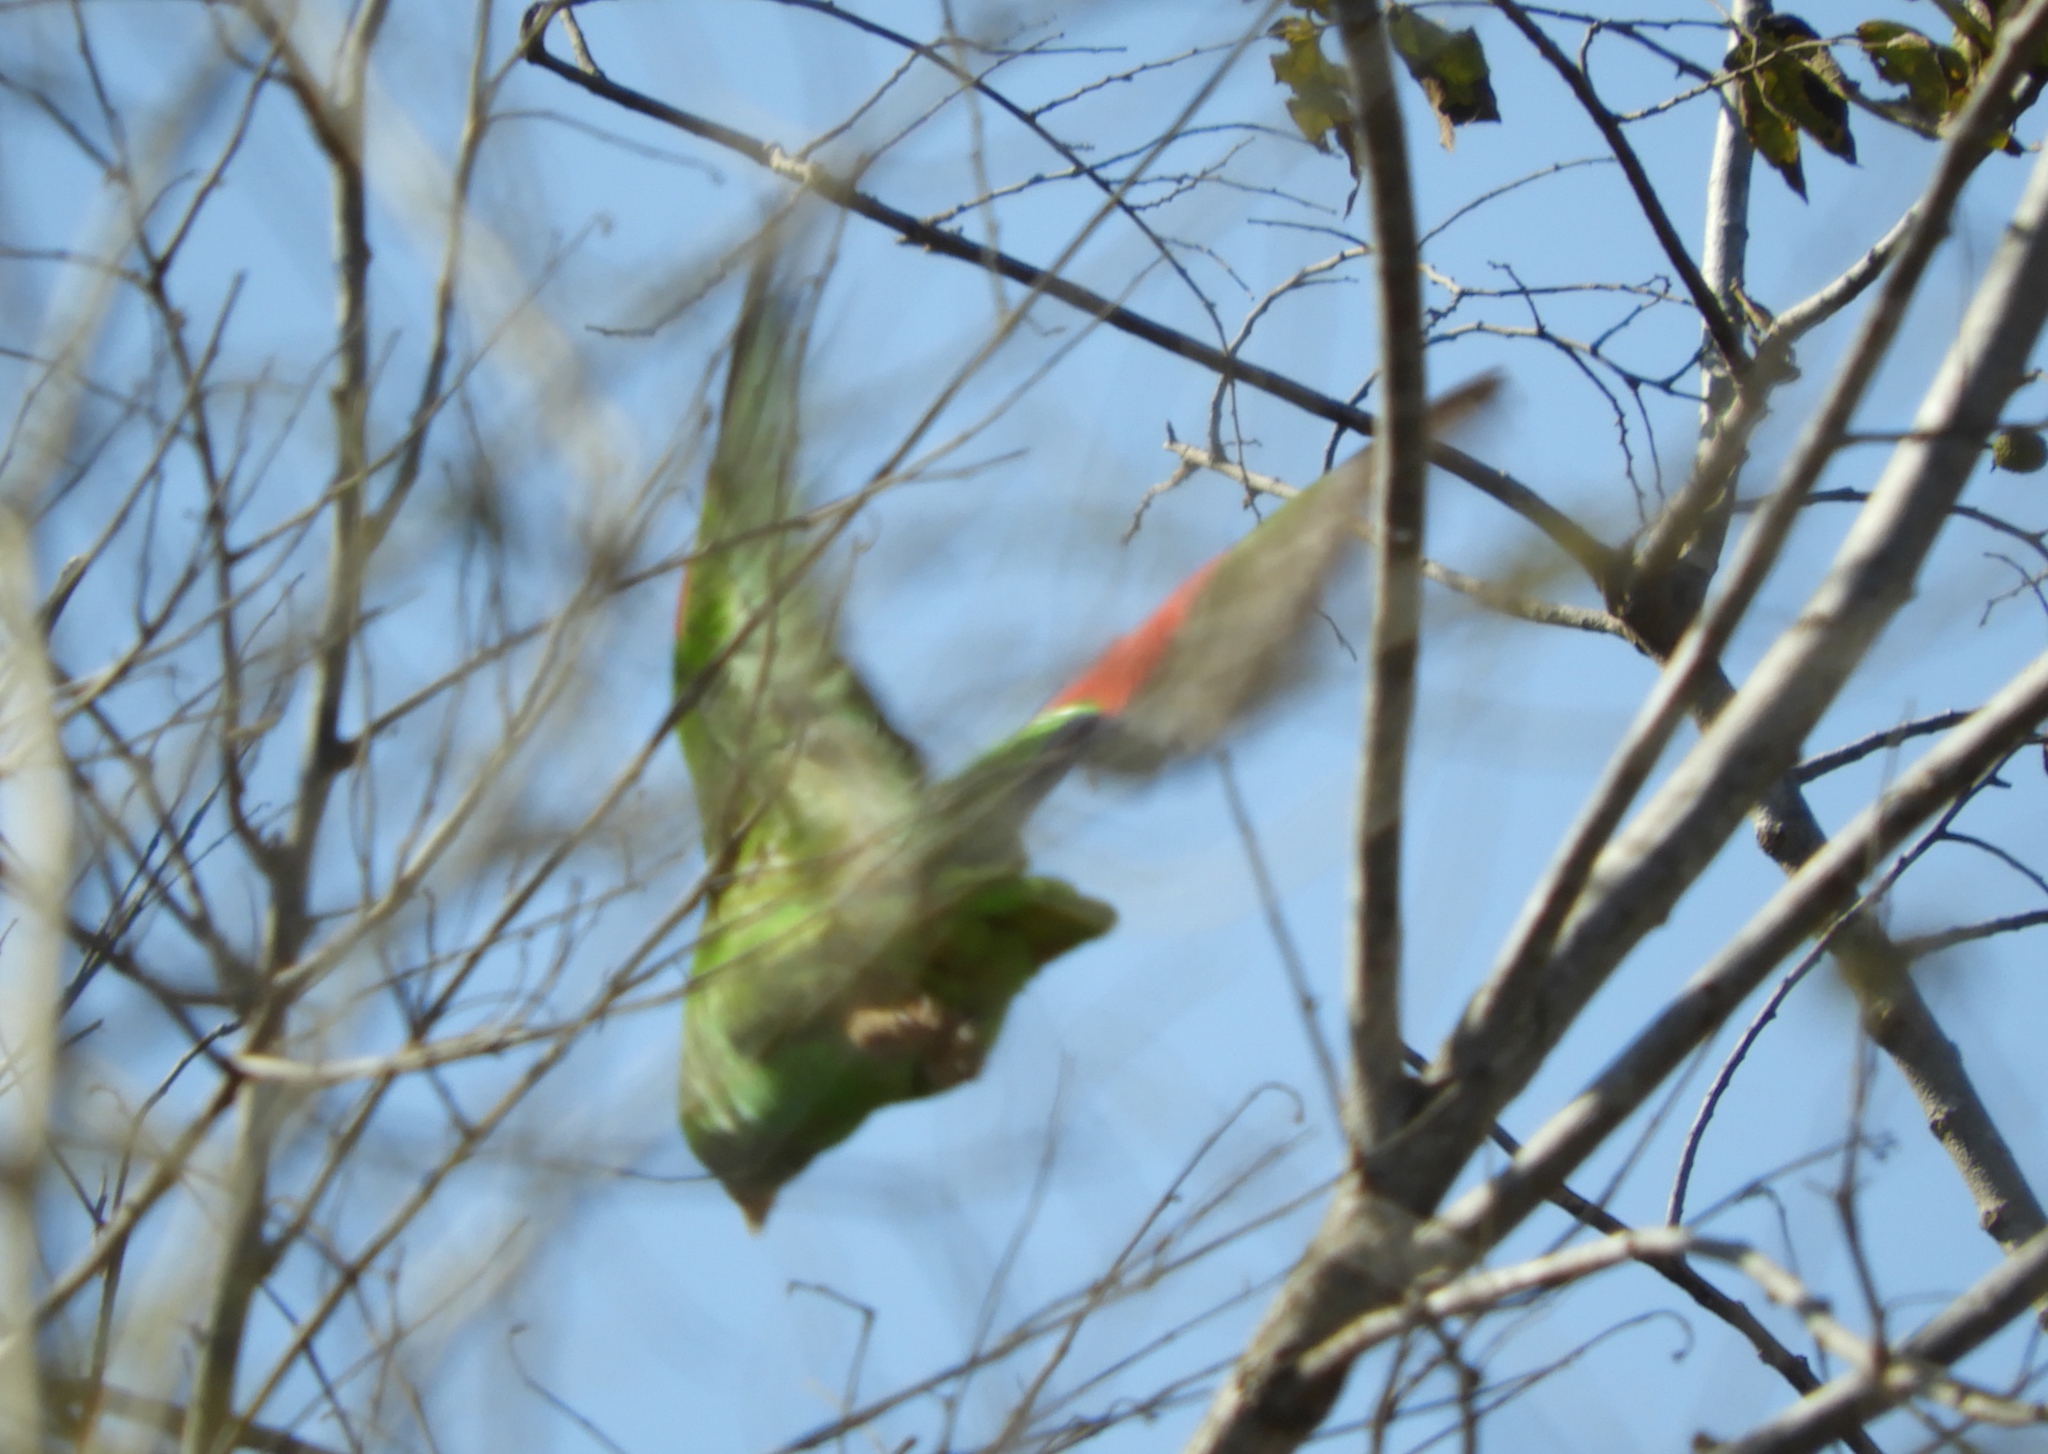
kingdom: Animalia
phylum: Chordata
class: Aves
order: Psittaciformes
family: Psittacidae
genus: Amazona
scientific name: Amazona albifrons
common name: White-fronted amazon
